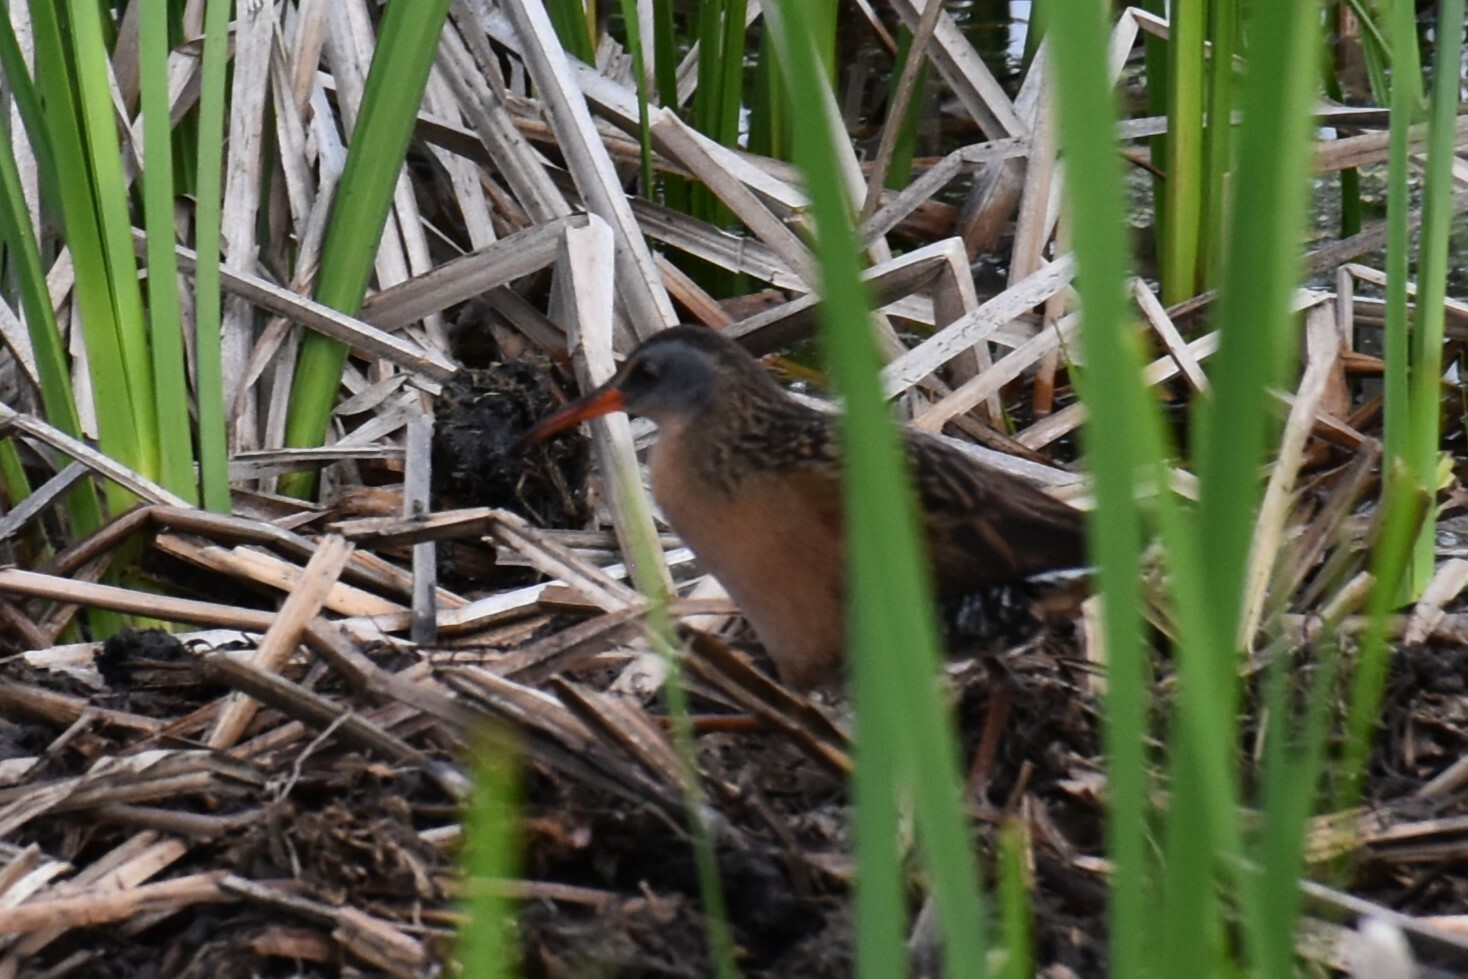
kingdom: Animalia
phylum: Chordata
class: Aves
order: Gruiformes
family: Rallidae
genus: Rallus
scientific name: Rallus limicola
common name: Virginia rail
